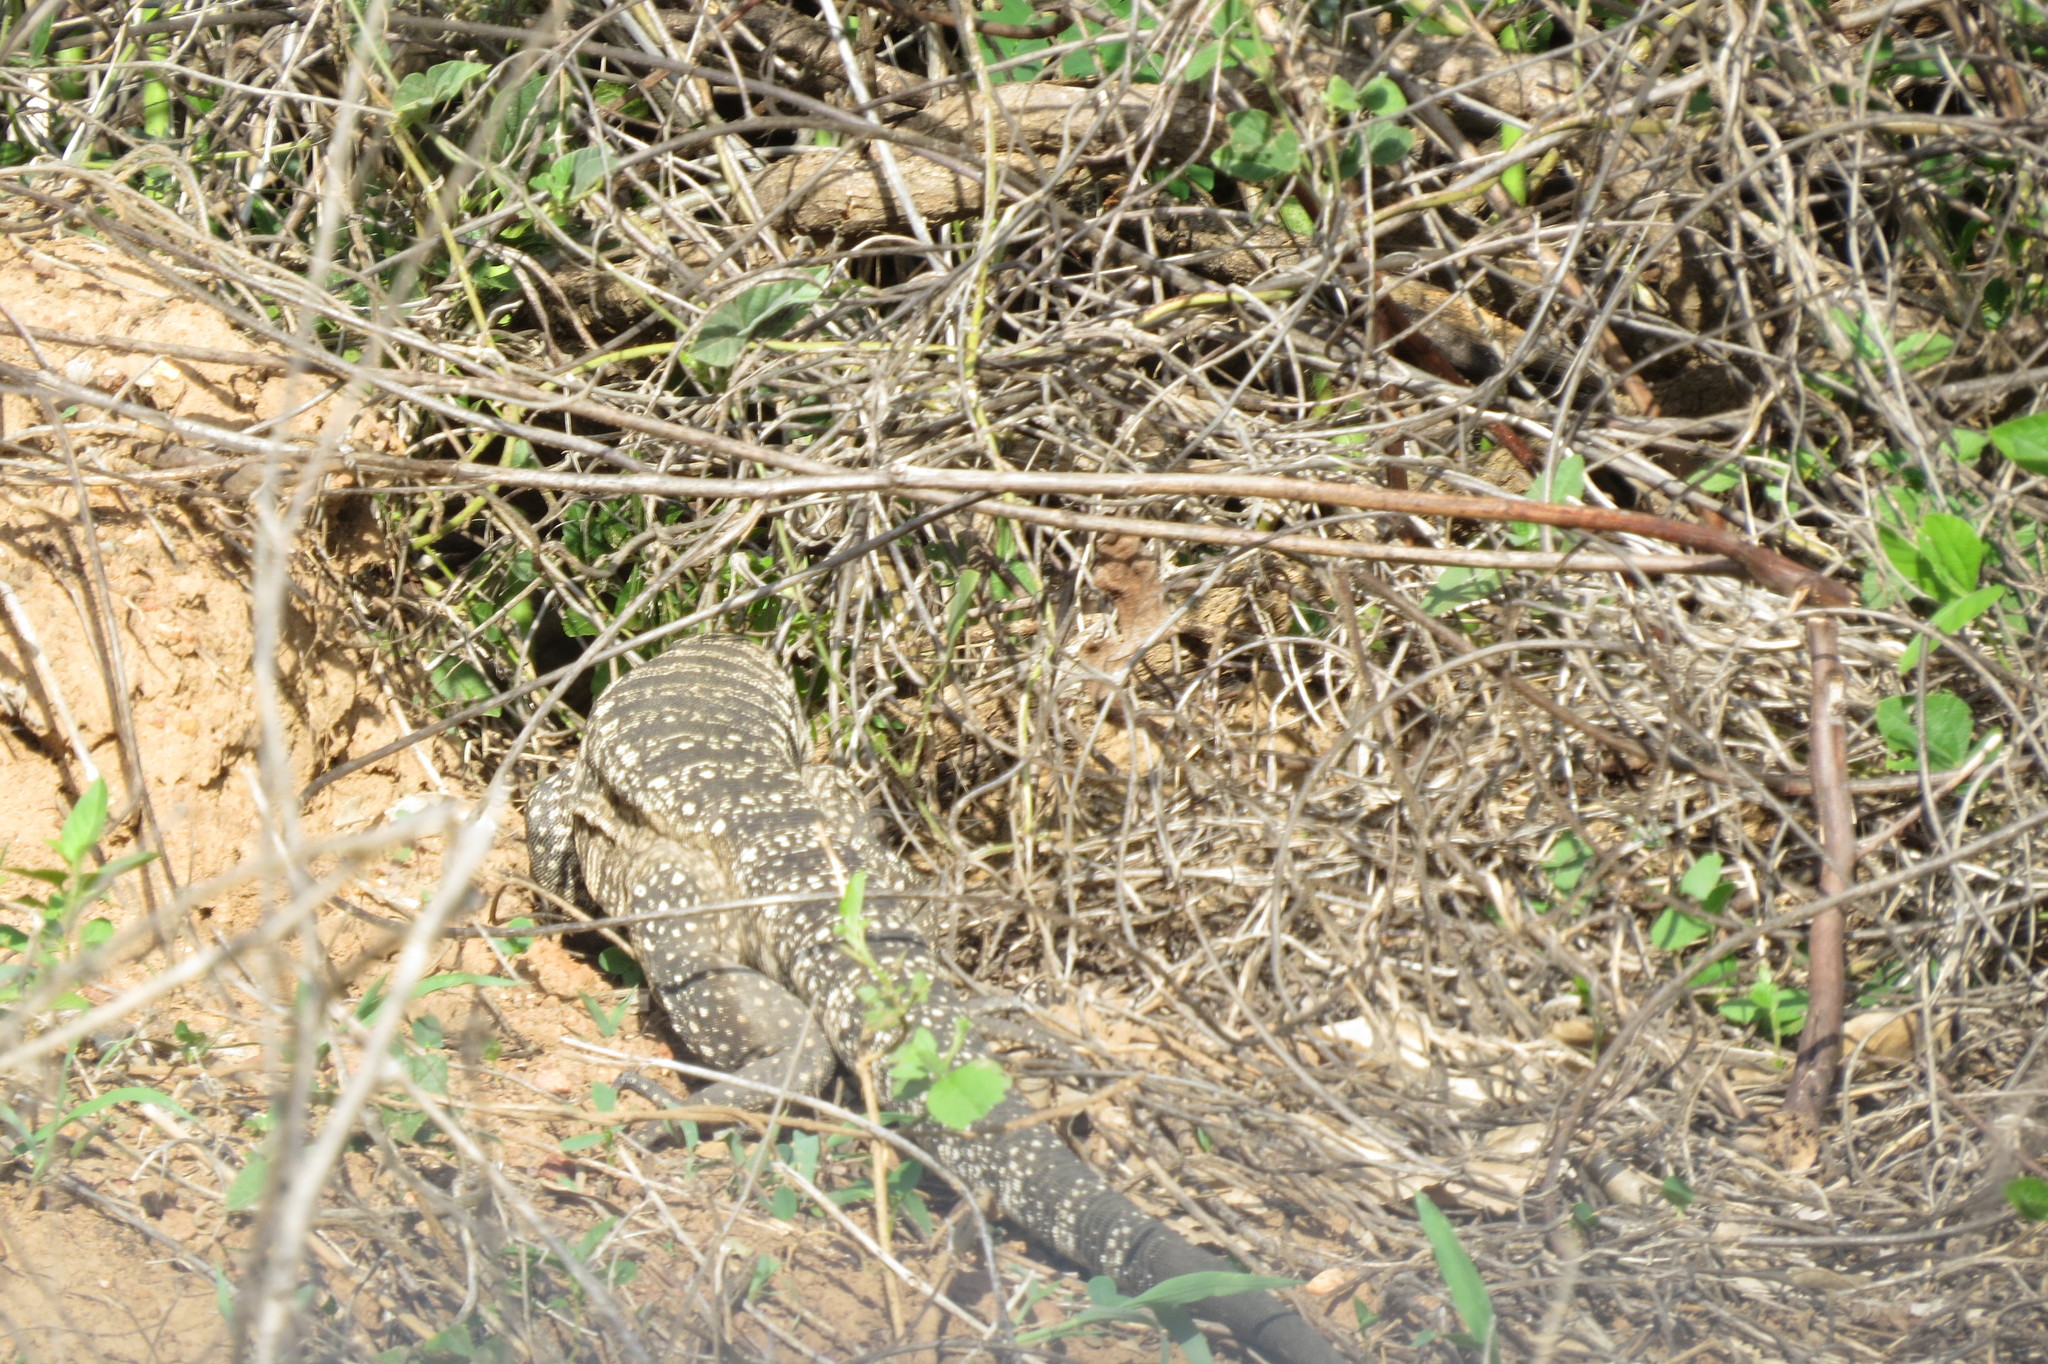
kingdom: Animalia
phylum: Chordata
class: Squamata
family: Teiidae
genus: Salvator
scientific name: Salvator merianae
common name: Argentine black and white tegu
